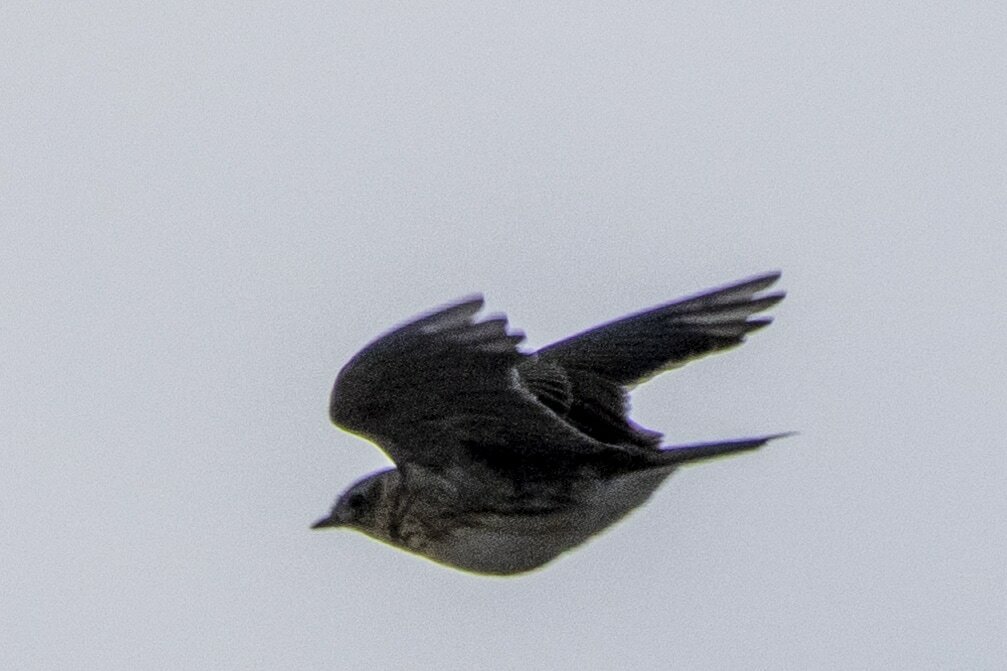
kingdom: Animalia
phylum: Chordata
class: Aves
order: Passeriformes
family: Alaudidae
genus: Alauda
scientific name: Alauda arvensis
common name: Eurasian skylark
